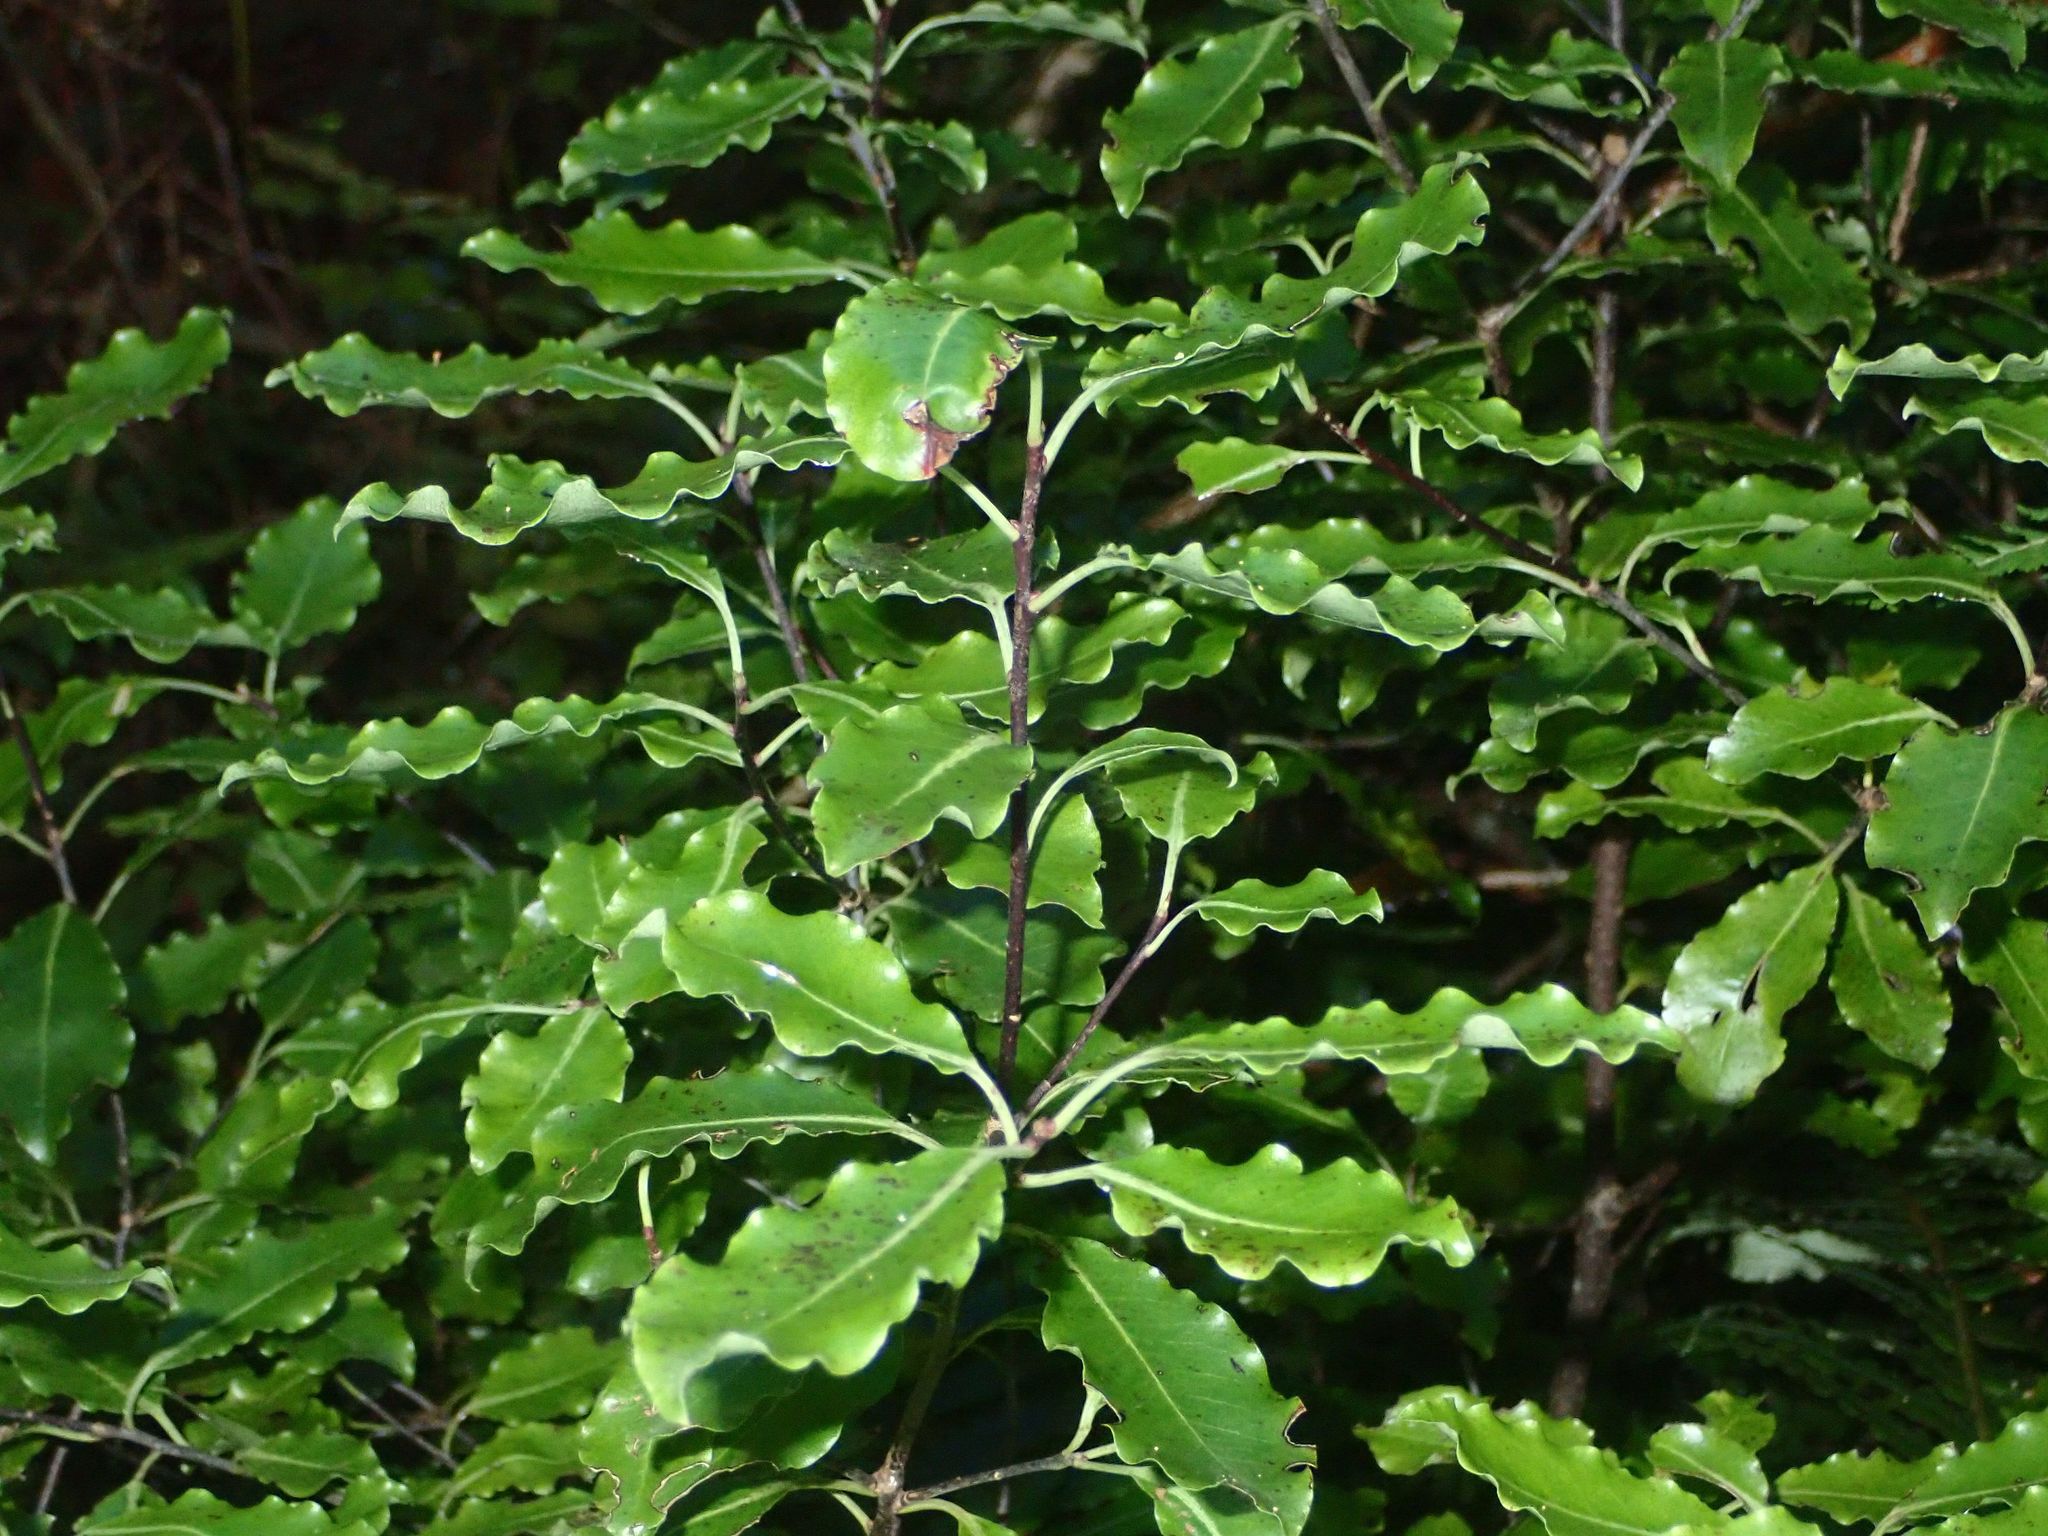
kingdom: Plantae
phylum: Tracheophyta
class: Magnoliopsida
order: Apiales
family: Pittosporaceae
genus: Pittosporum
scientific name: Pittosporum tenuifolium
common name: Kohuhu
